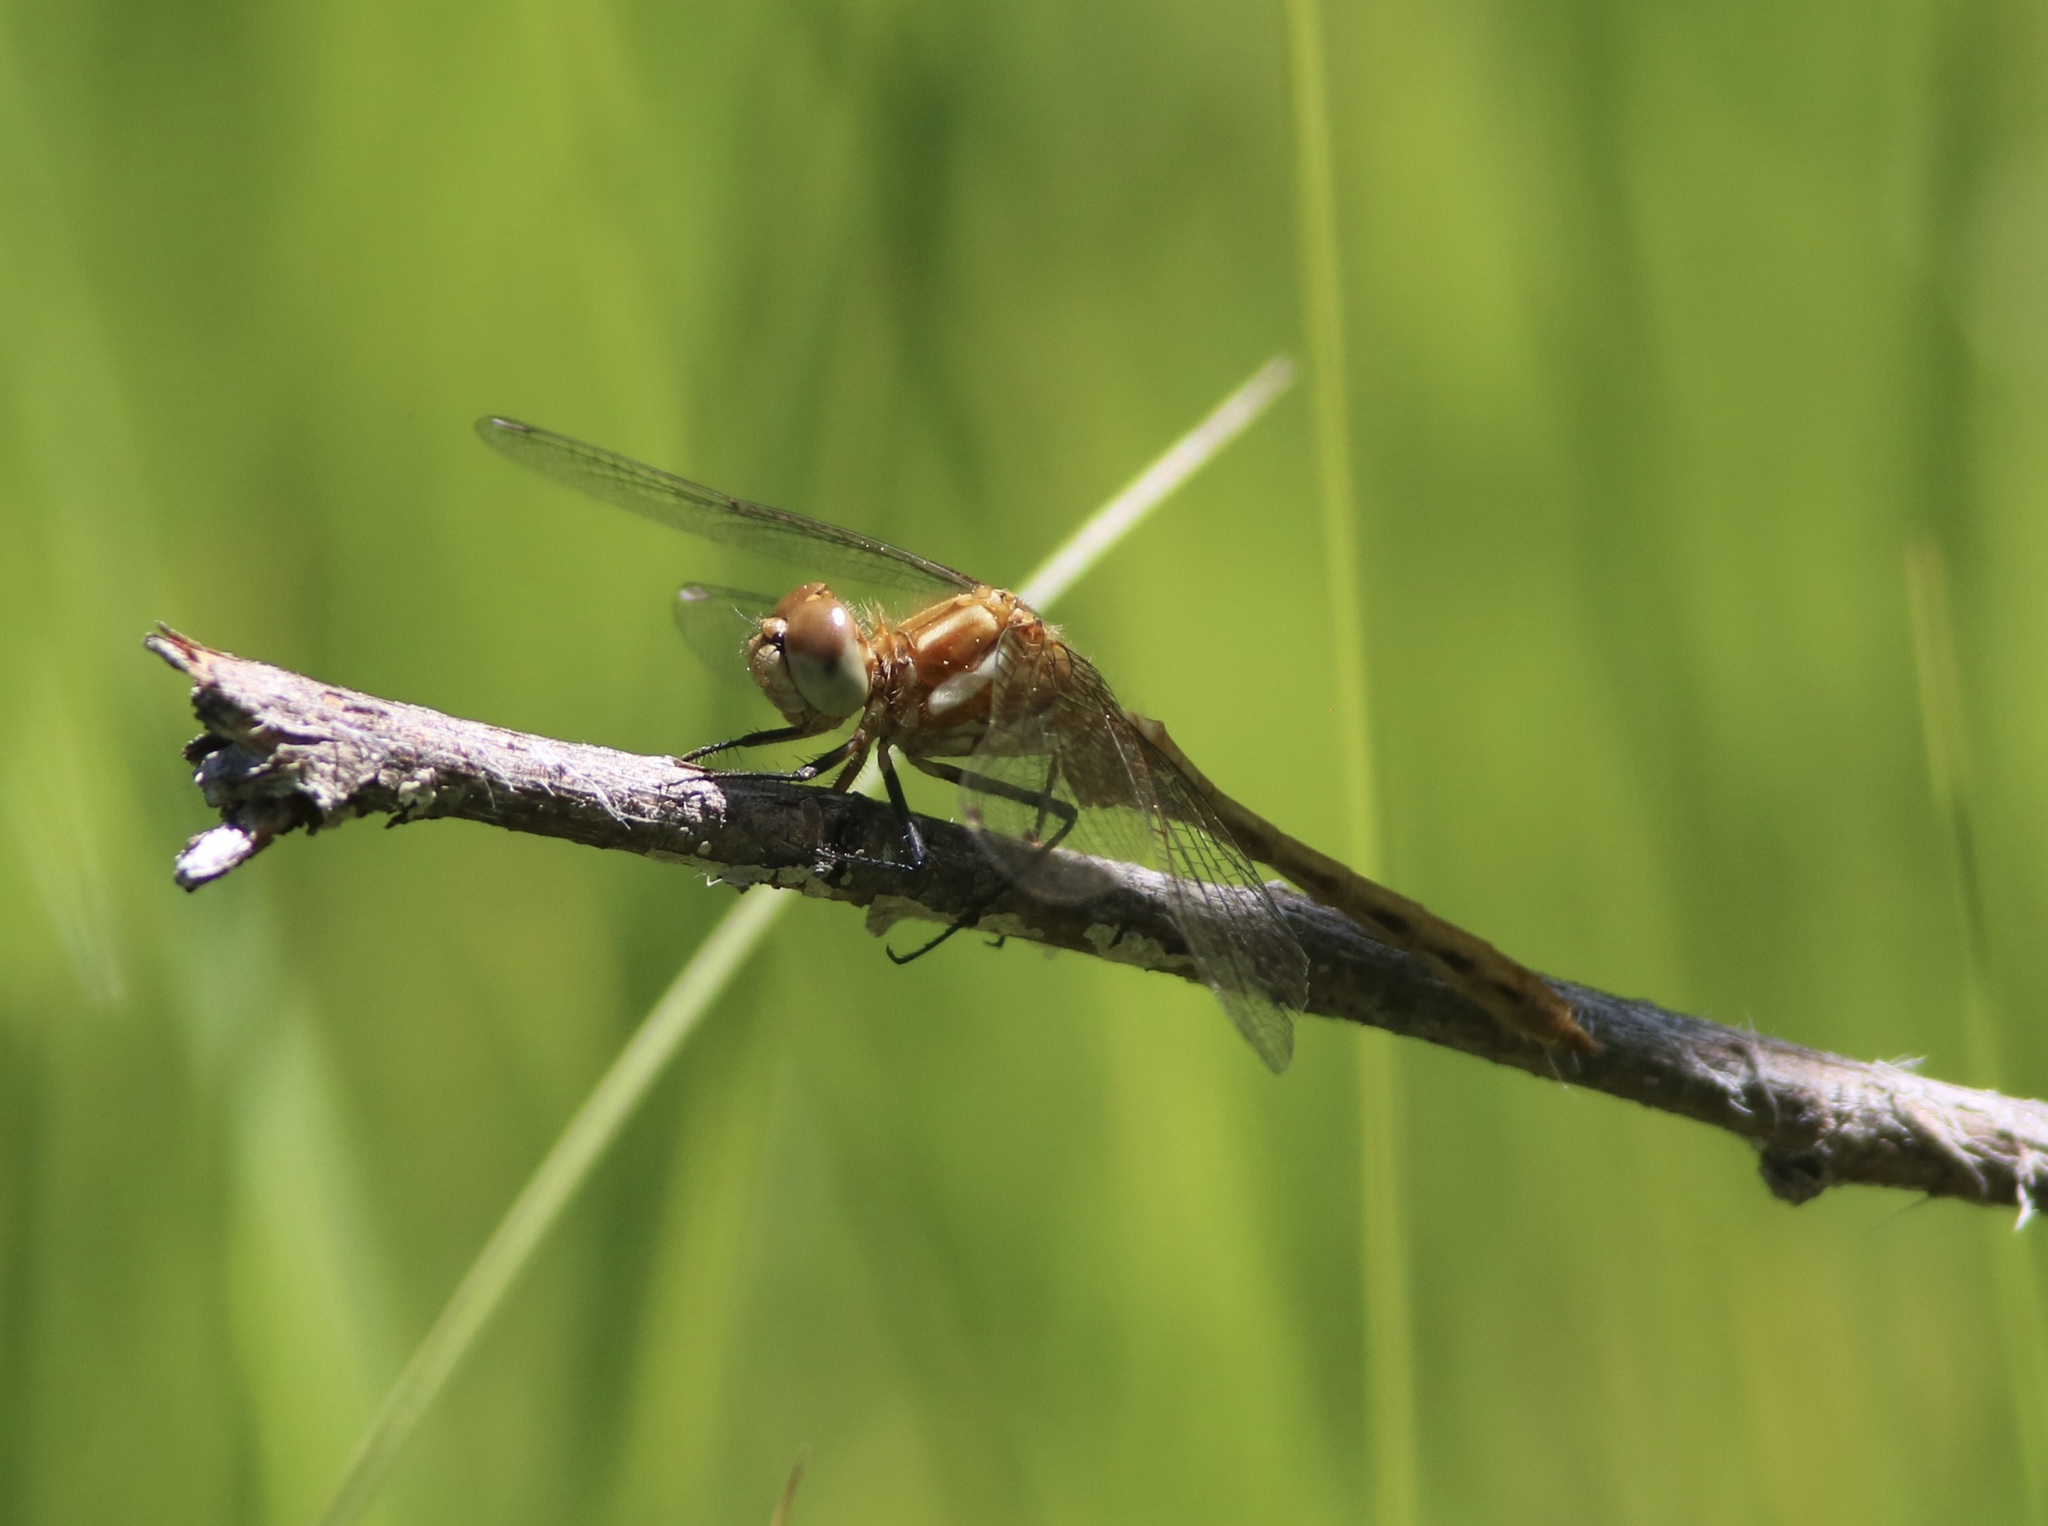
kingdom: Animalia
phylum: Arthropoda
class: Insecta
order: Odonata
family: Libellulidae
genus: Sympetrum
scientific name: Sympetrum pallipes
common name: Striped meadowhawk
